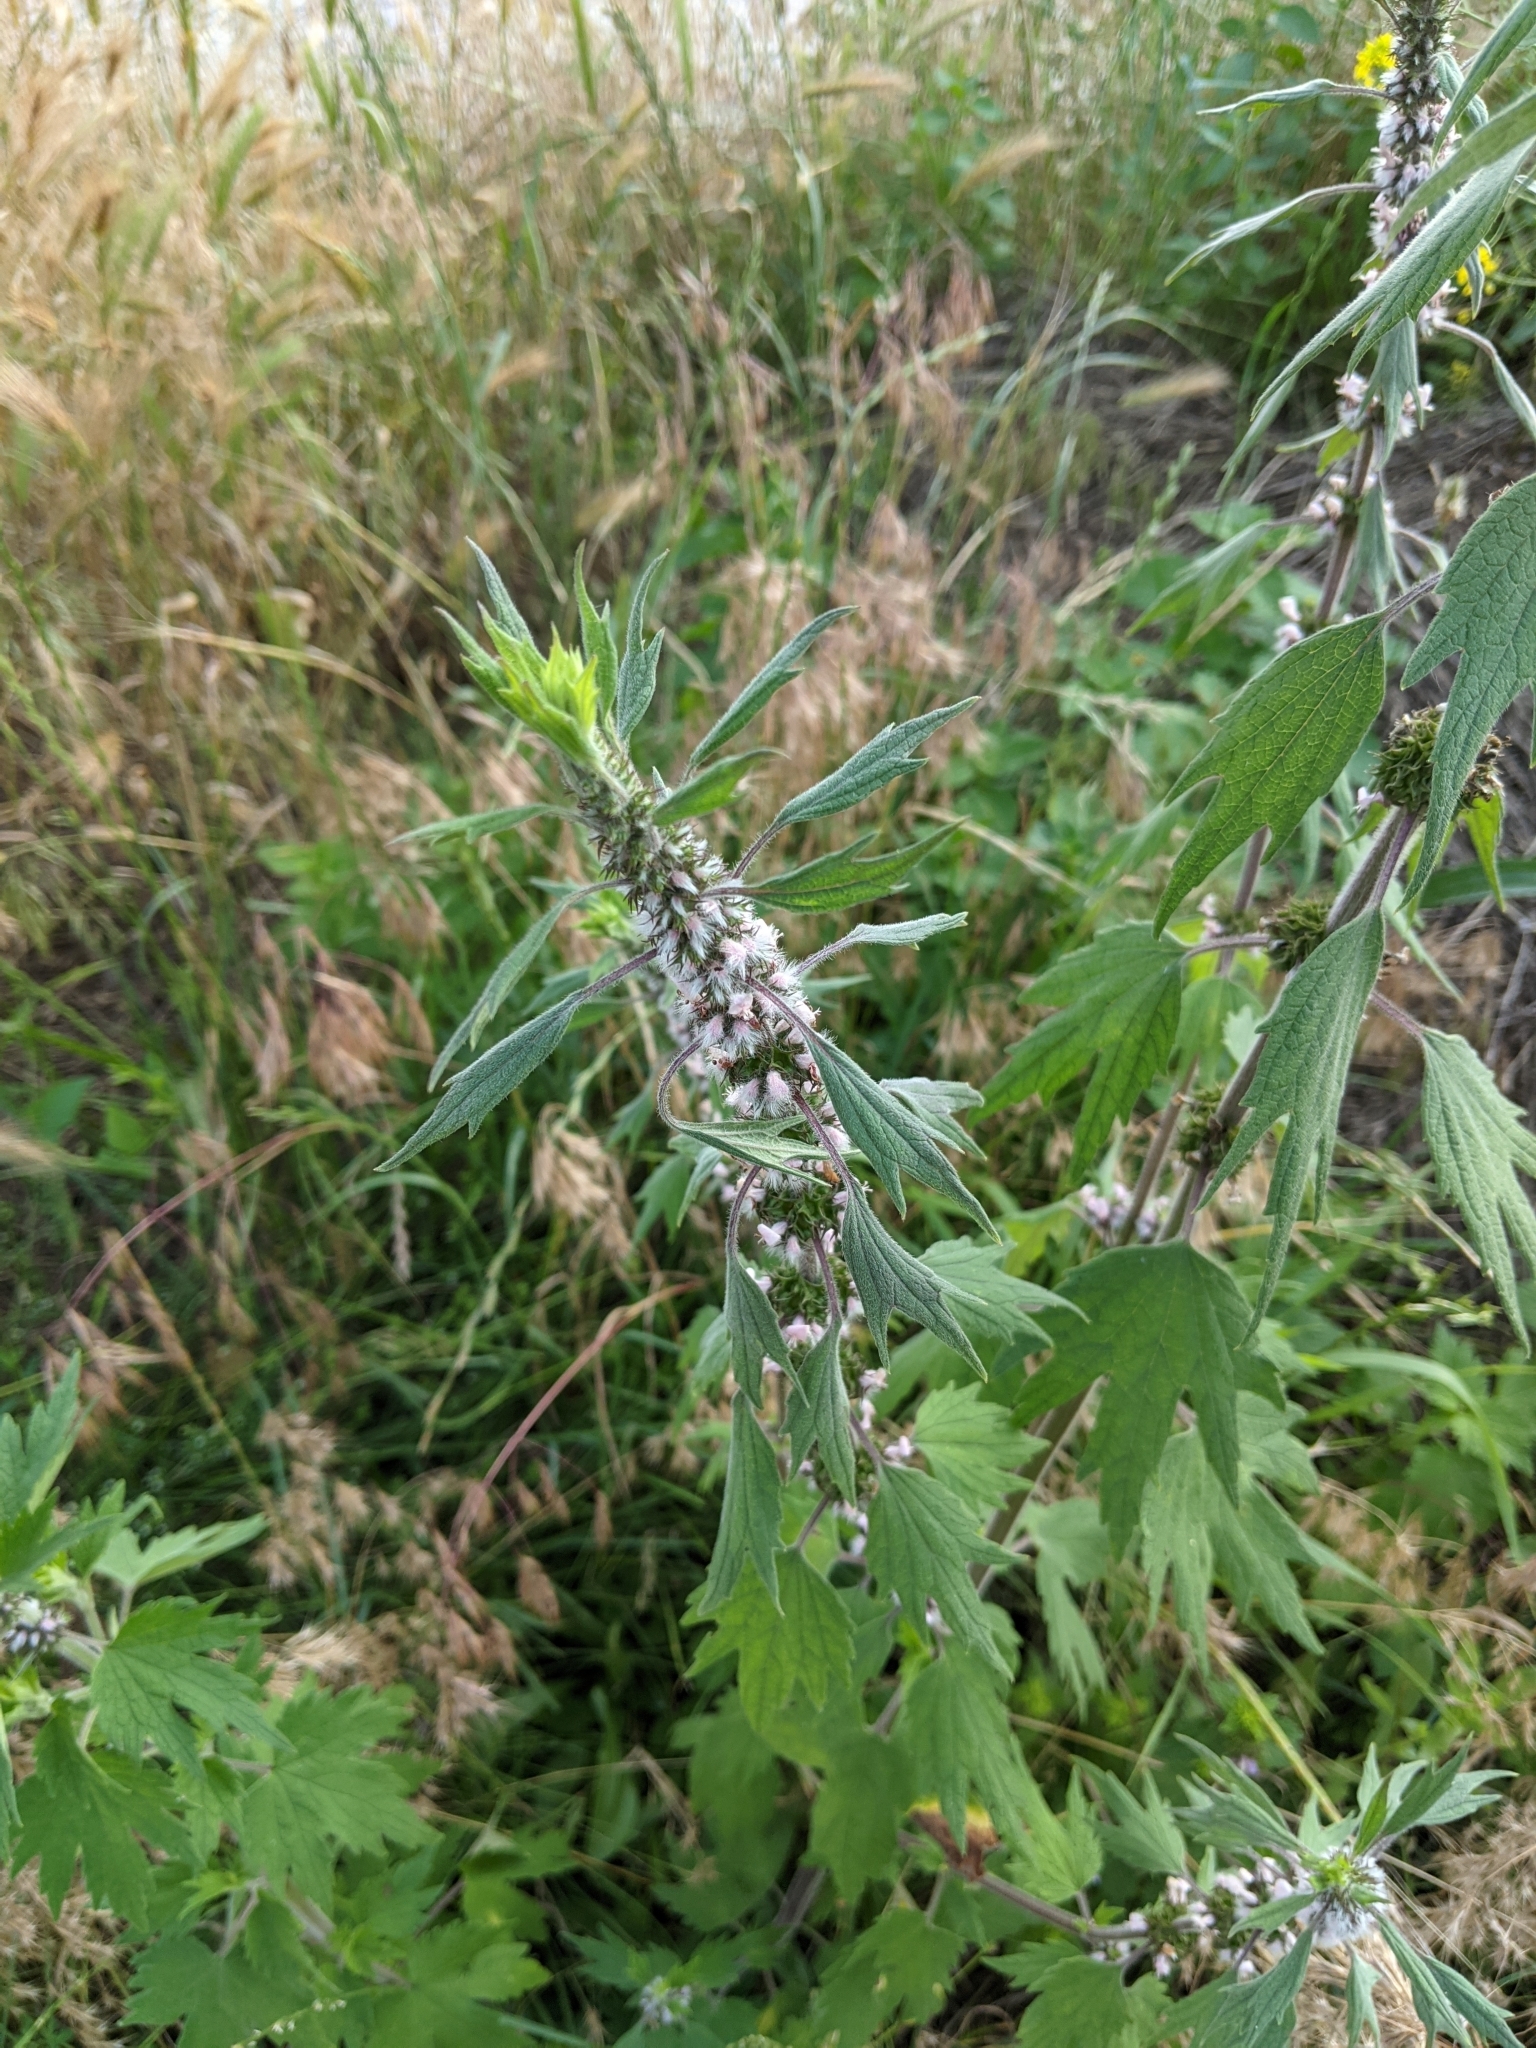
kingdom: Plantae
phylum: Tracheophyta
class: Magnoliopsida
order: Lamiales
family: Lamiaceae
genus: Leonurus
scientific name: Leonurus quinquelobatus
